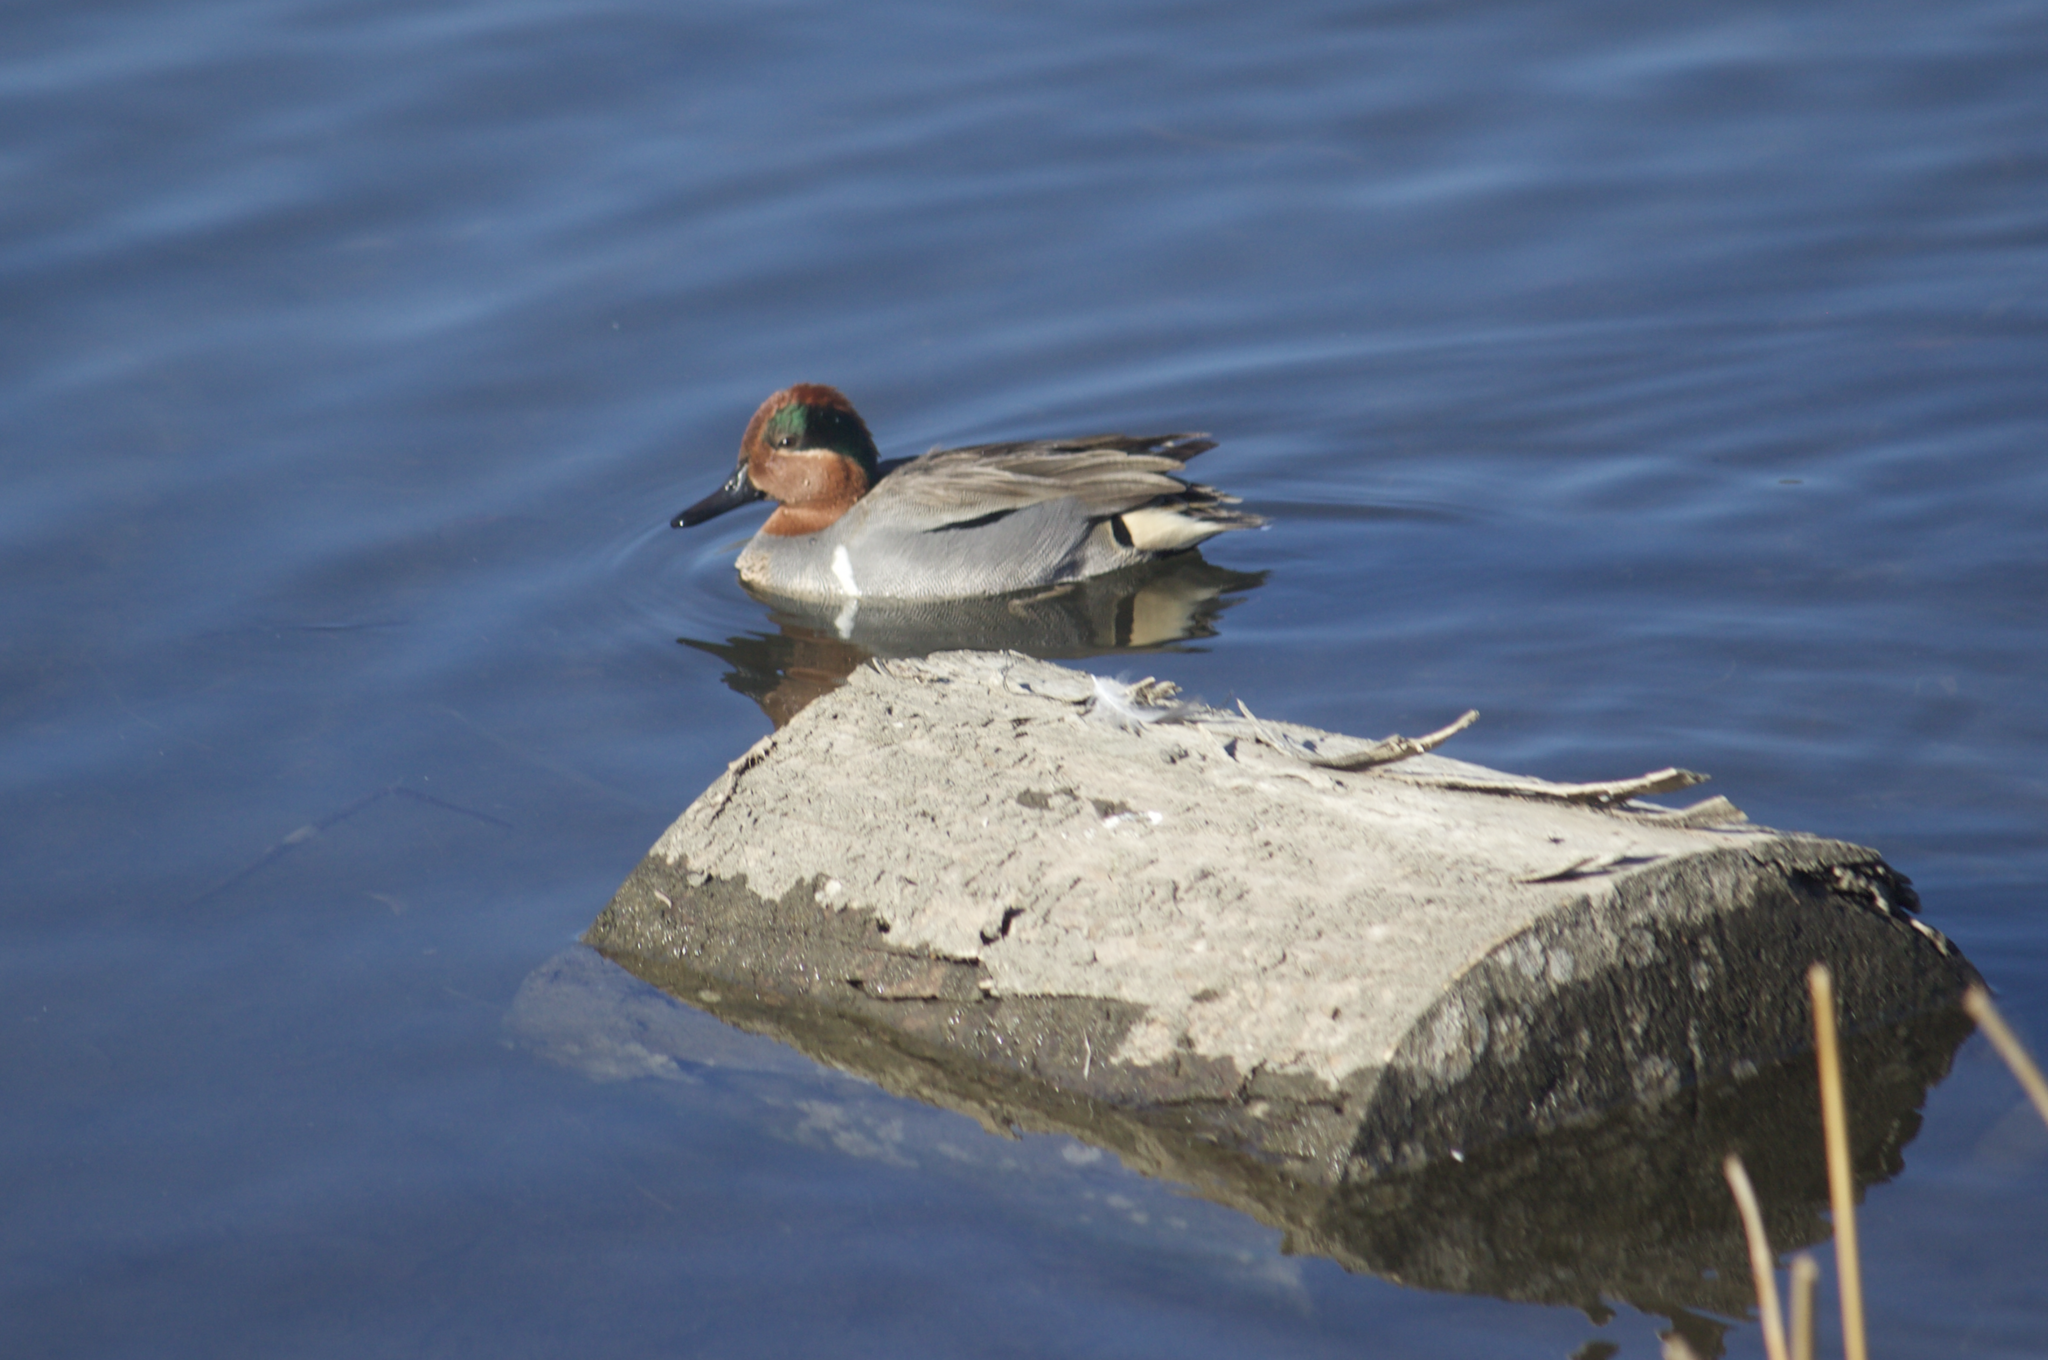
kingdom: Animalia
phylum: Chordata
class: Aves
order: Anseriformes
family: Anatidae
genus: Anas
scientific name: Anas crecca
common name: Eurasian teal
